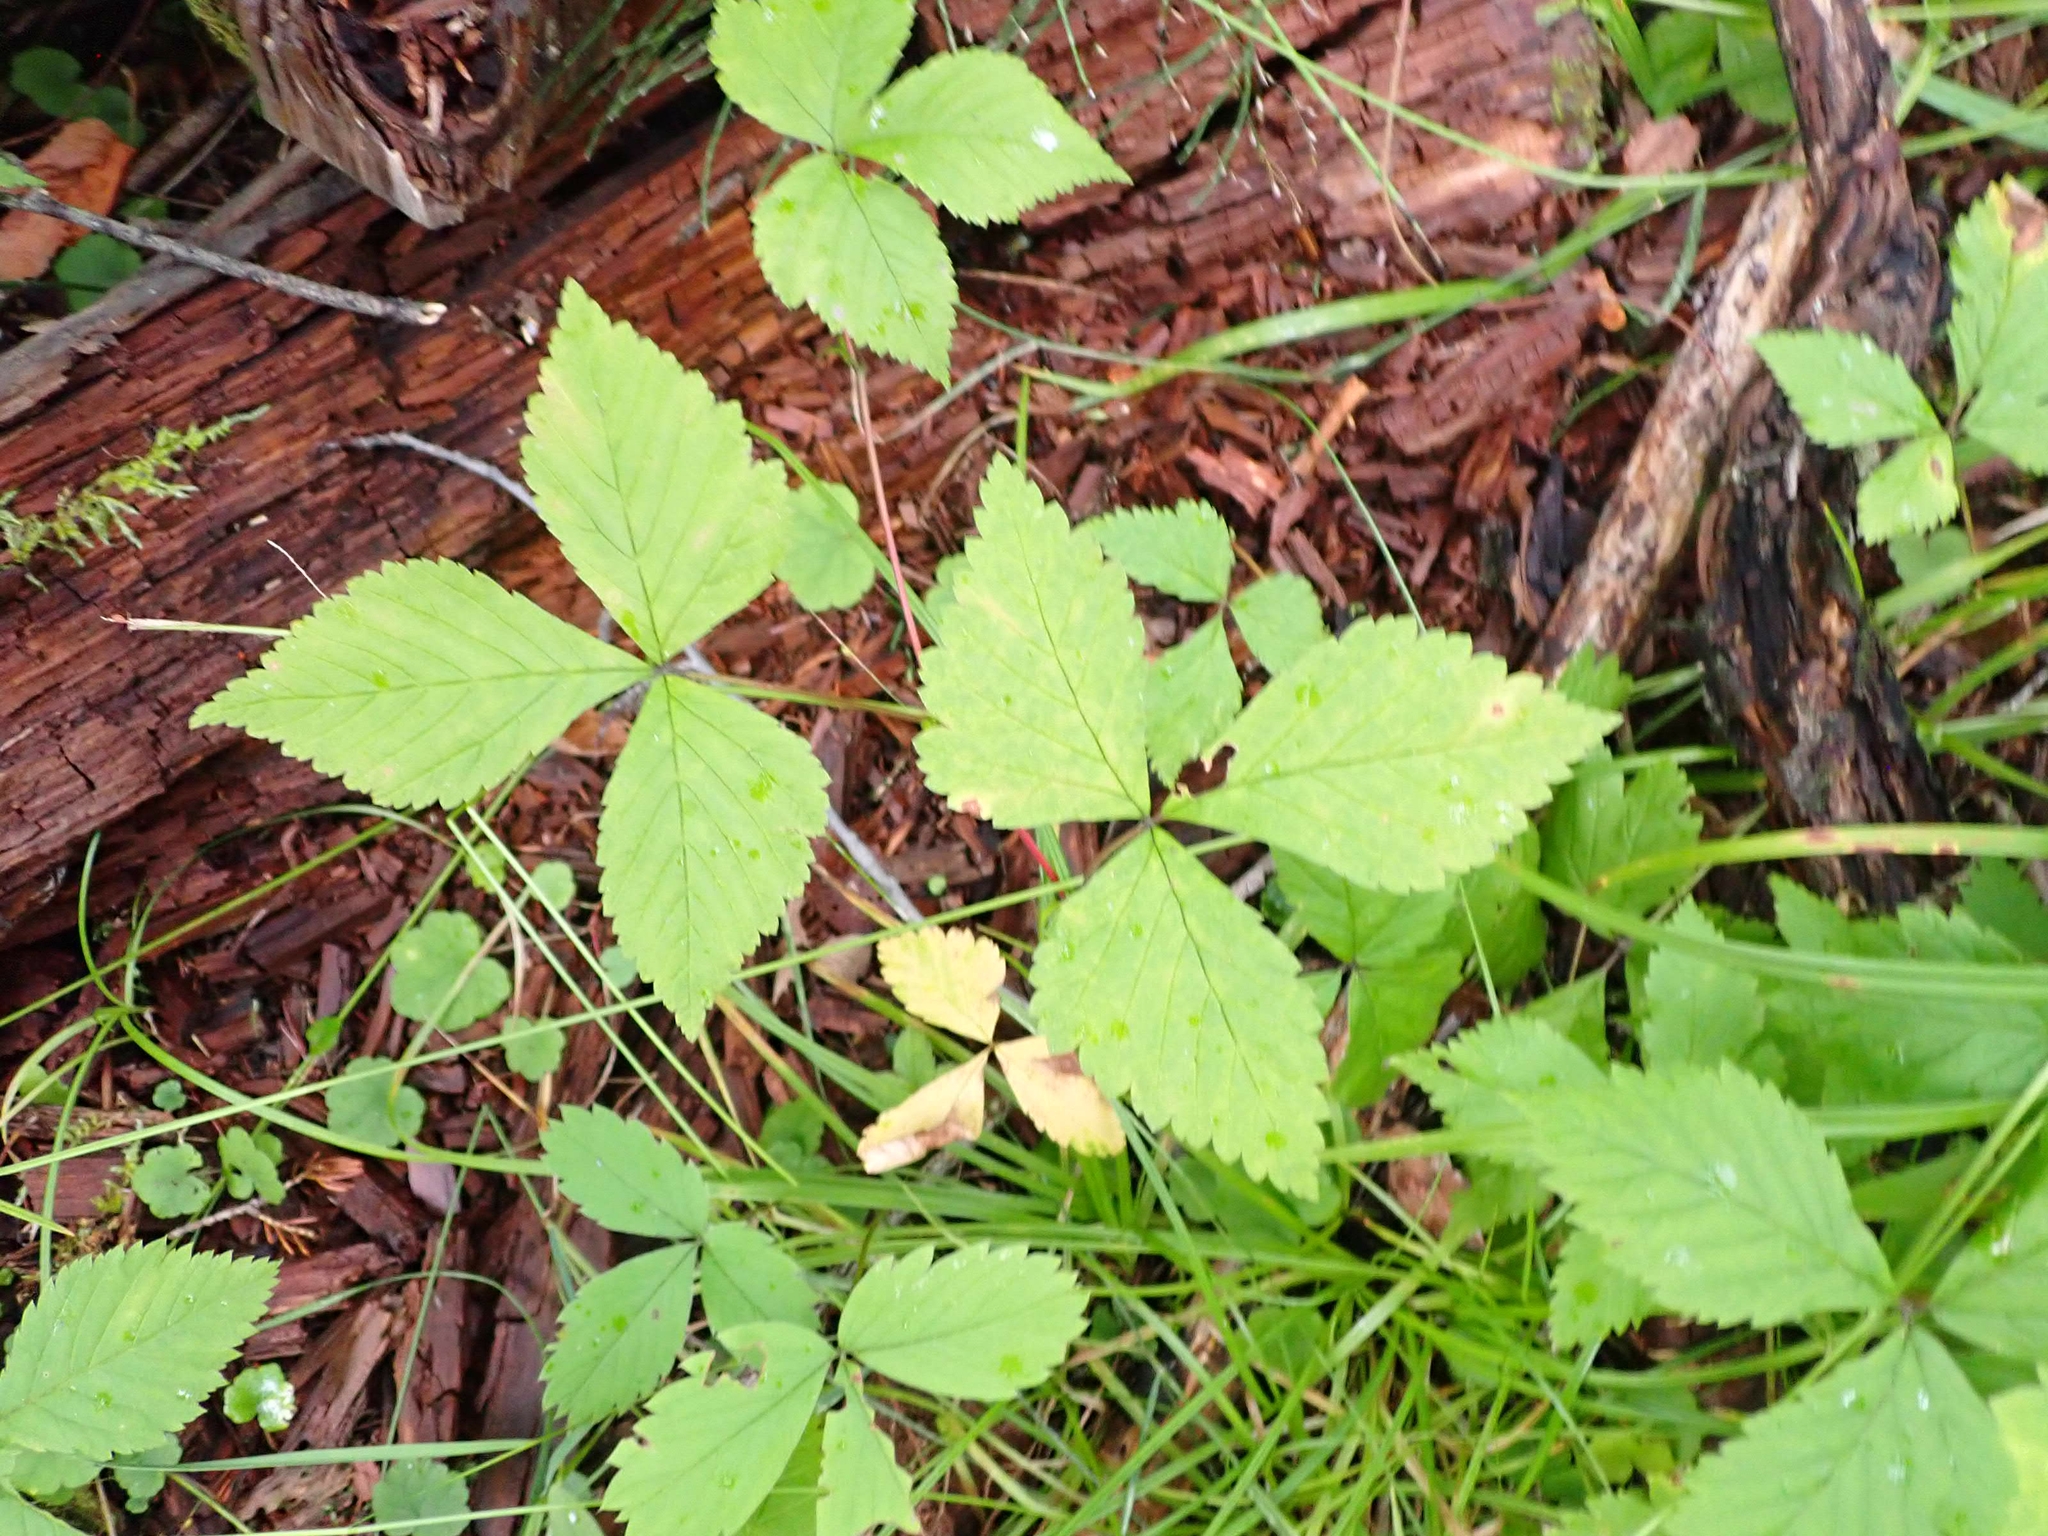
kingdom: Plantae
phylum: Tracheophyta
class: Magnoliopsida
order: Rosales
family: Rosaceae
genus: Rubus
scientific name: Rubus pubescens
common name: Dwarf raspberry
